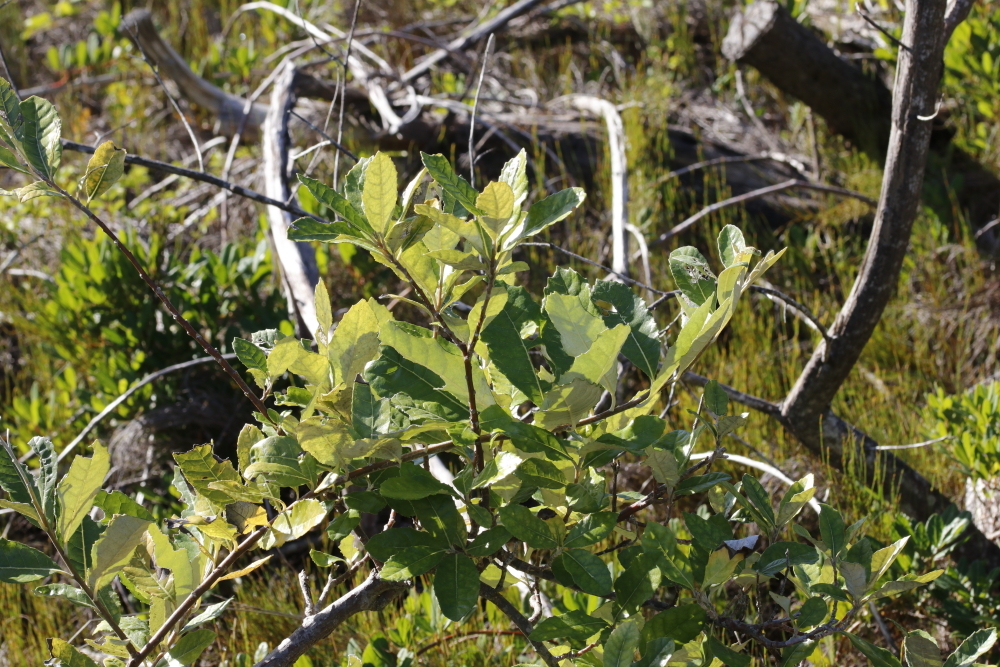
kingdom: Plantae
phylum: Tracheophyta
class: Magnoliopsida
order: Asterales
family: Asteraceae
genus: Brachylaena
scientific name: Brachylaena discolor
